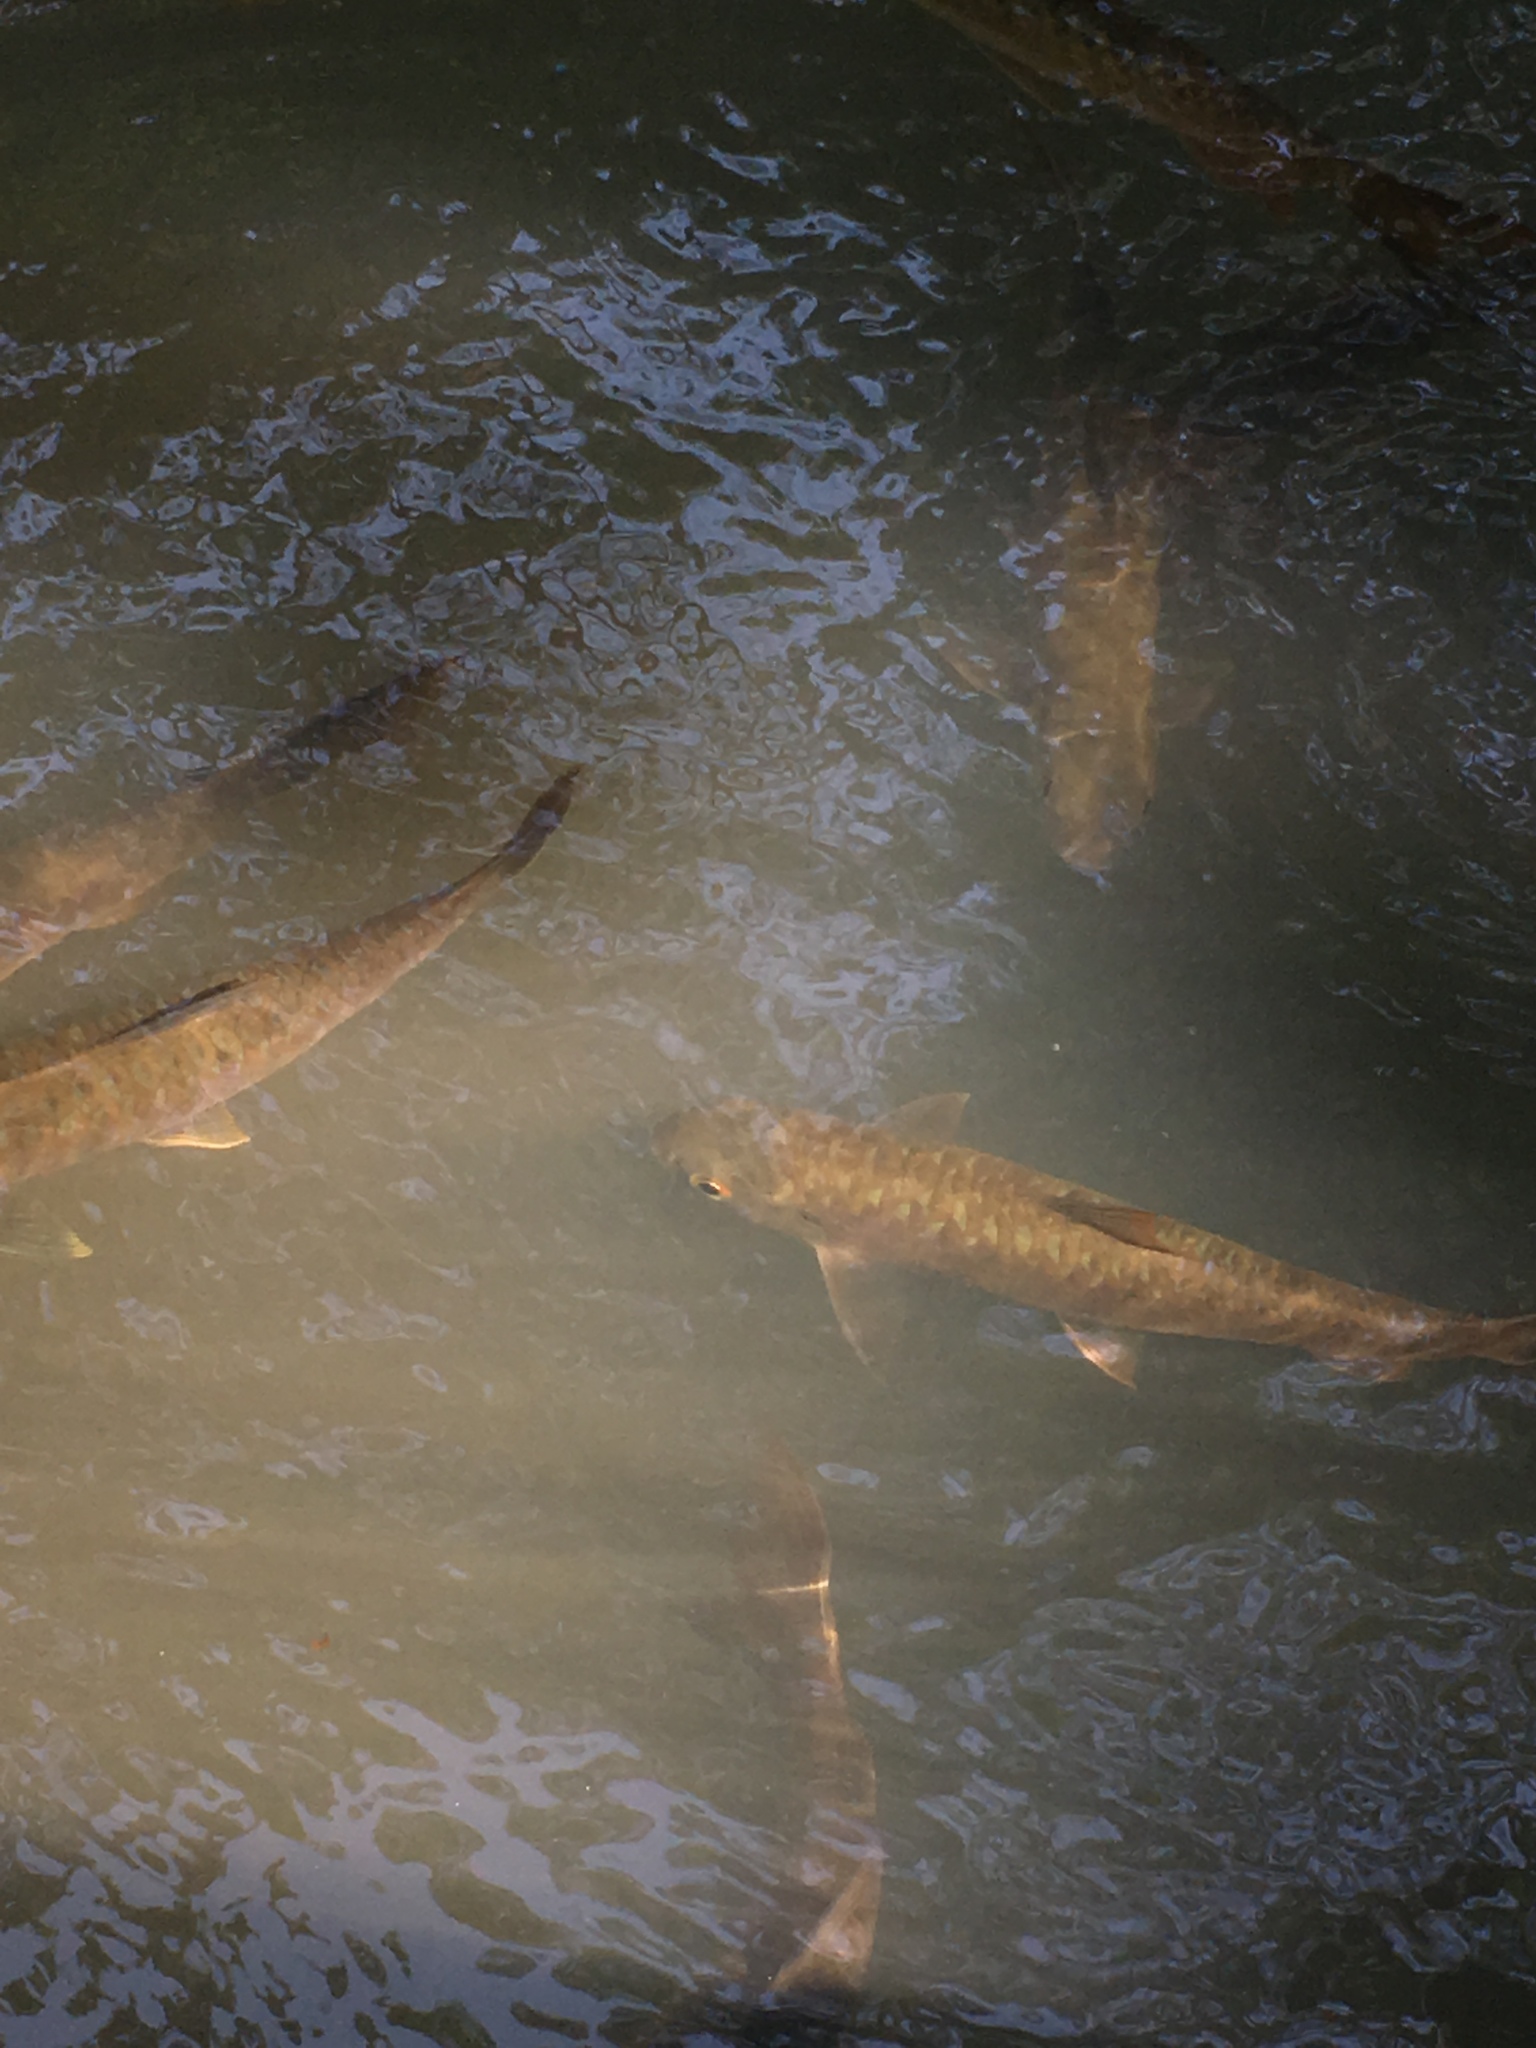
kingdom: Animalia
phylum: Chordata
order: Cypriniformes
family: Cyprinidae
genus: Neolissochilus
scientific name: Neolissochilus stracheyi
